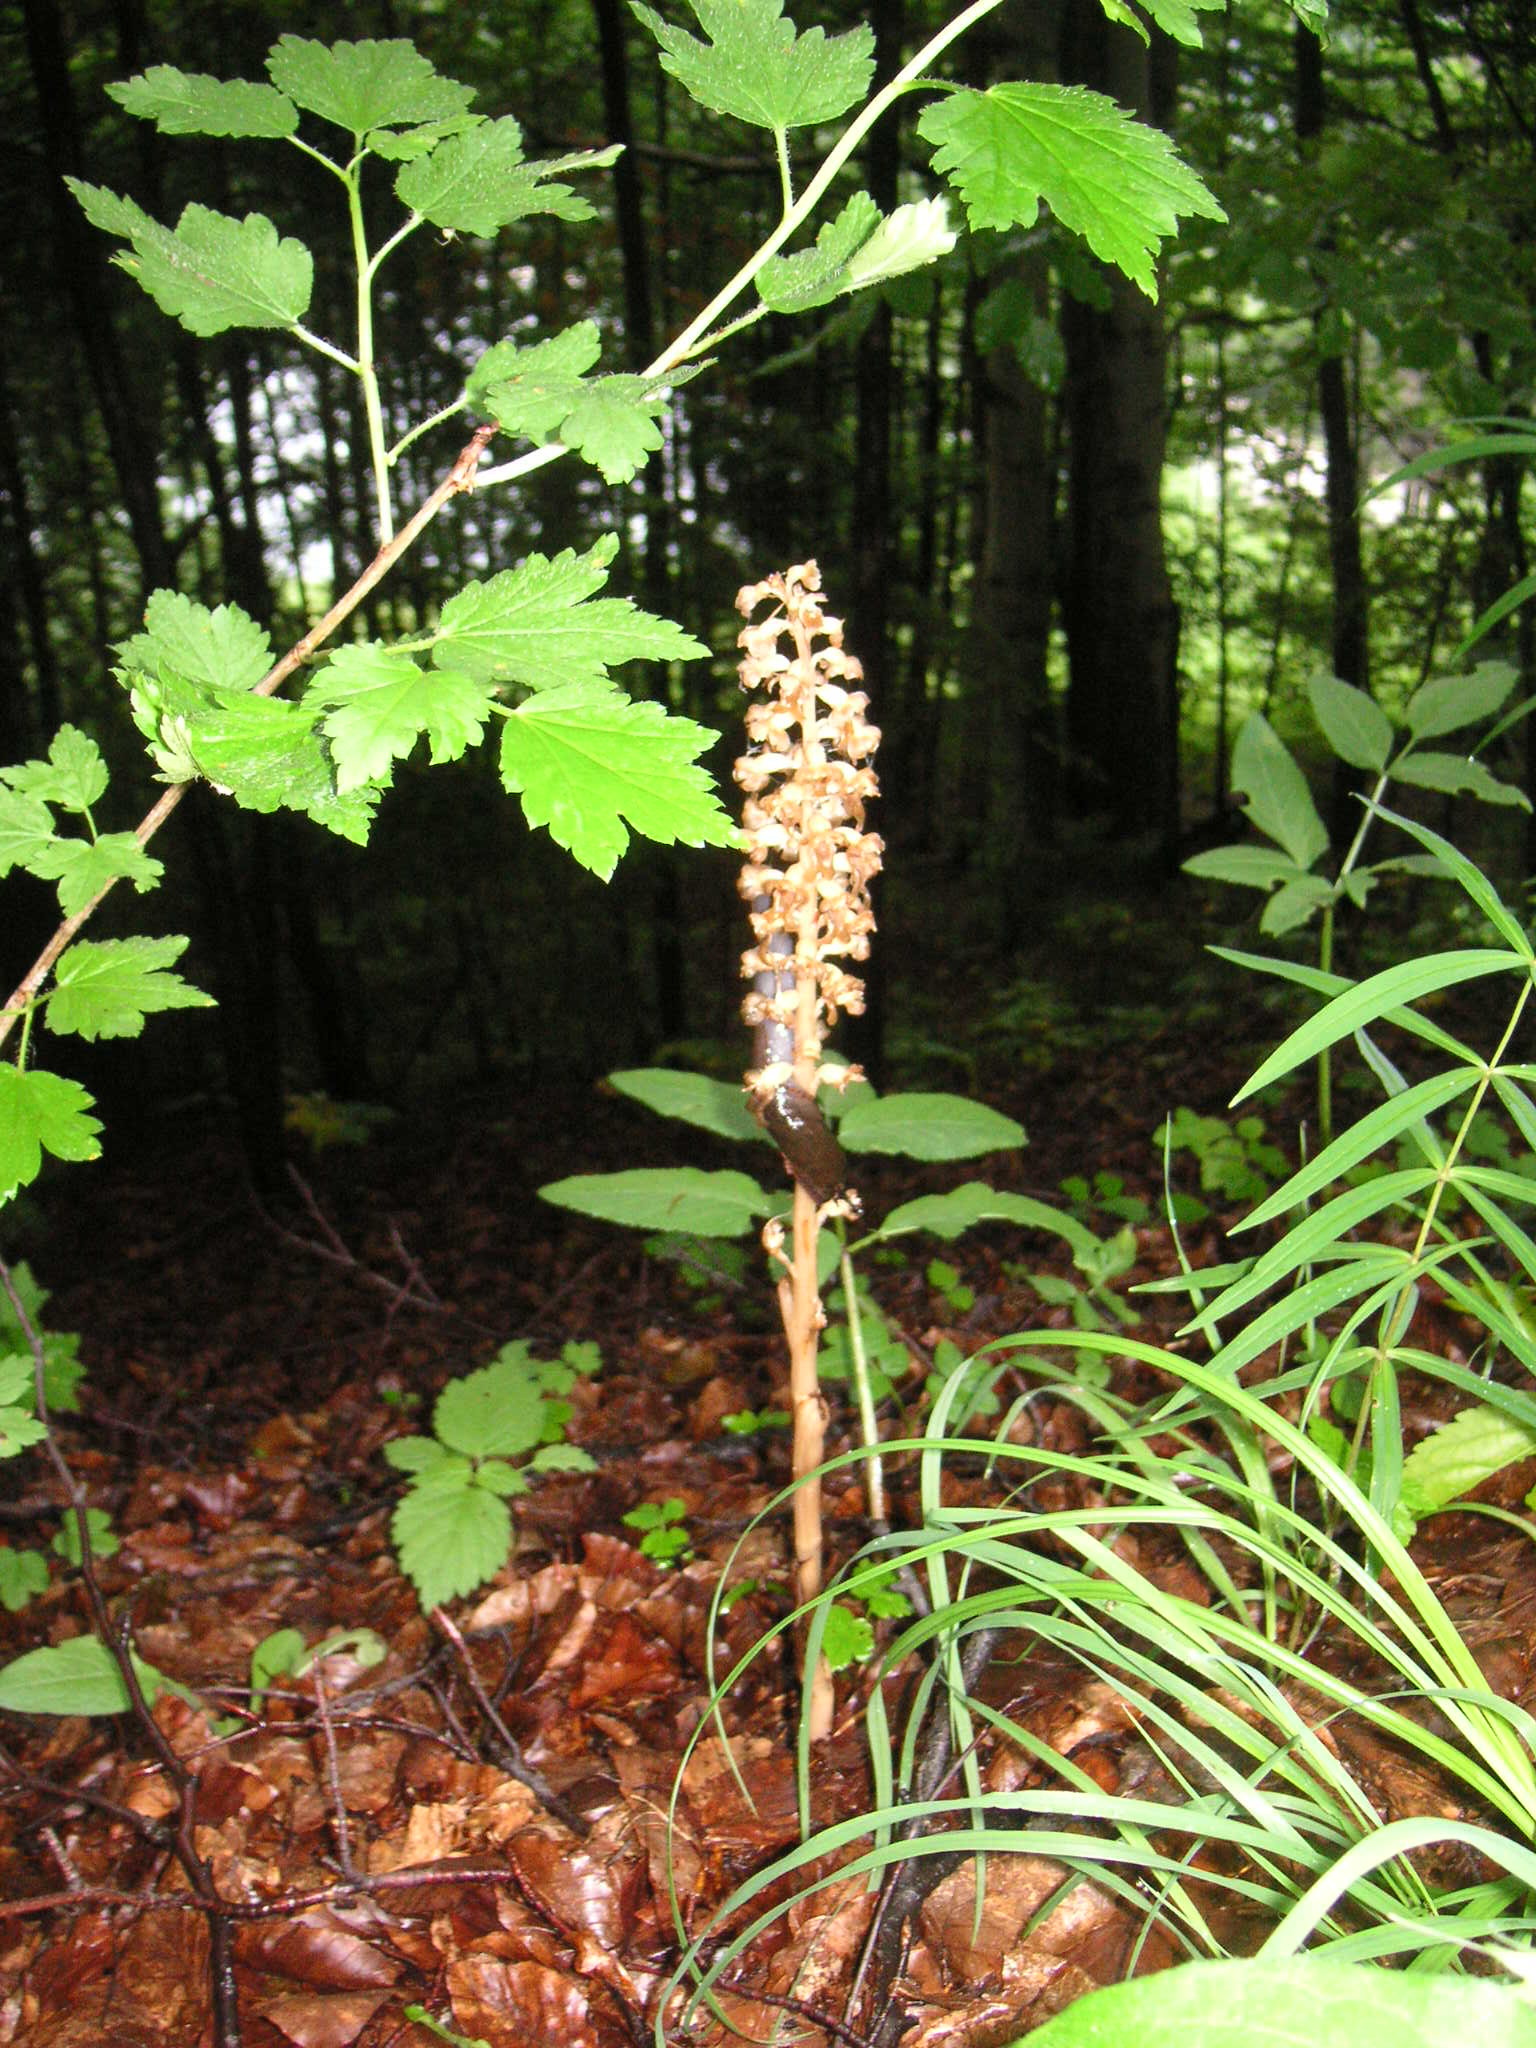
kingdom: Plantae
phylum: Tracheophyta
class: Liliopsida
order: Asparagales
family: Orchidaceae
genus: Neottia
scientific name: Neottia nidus-avis
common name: Bird's-nest orchid
